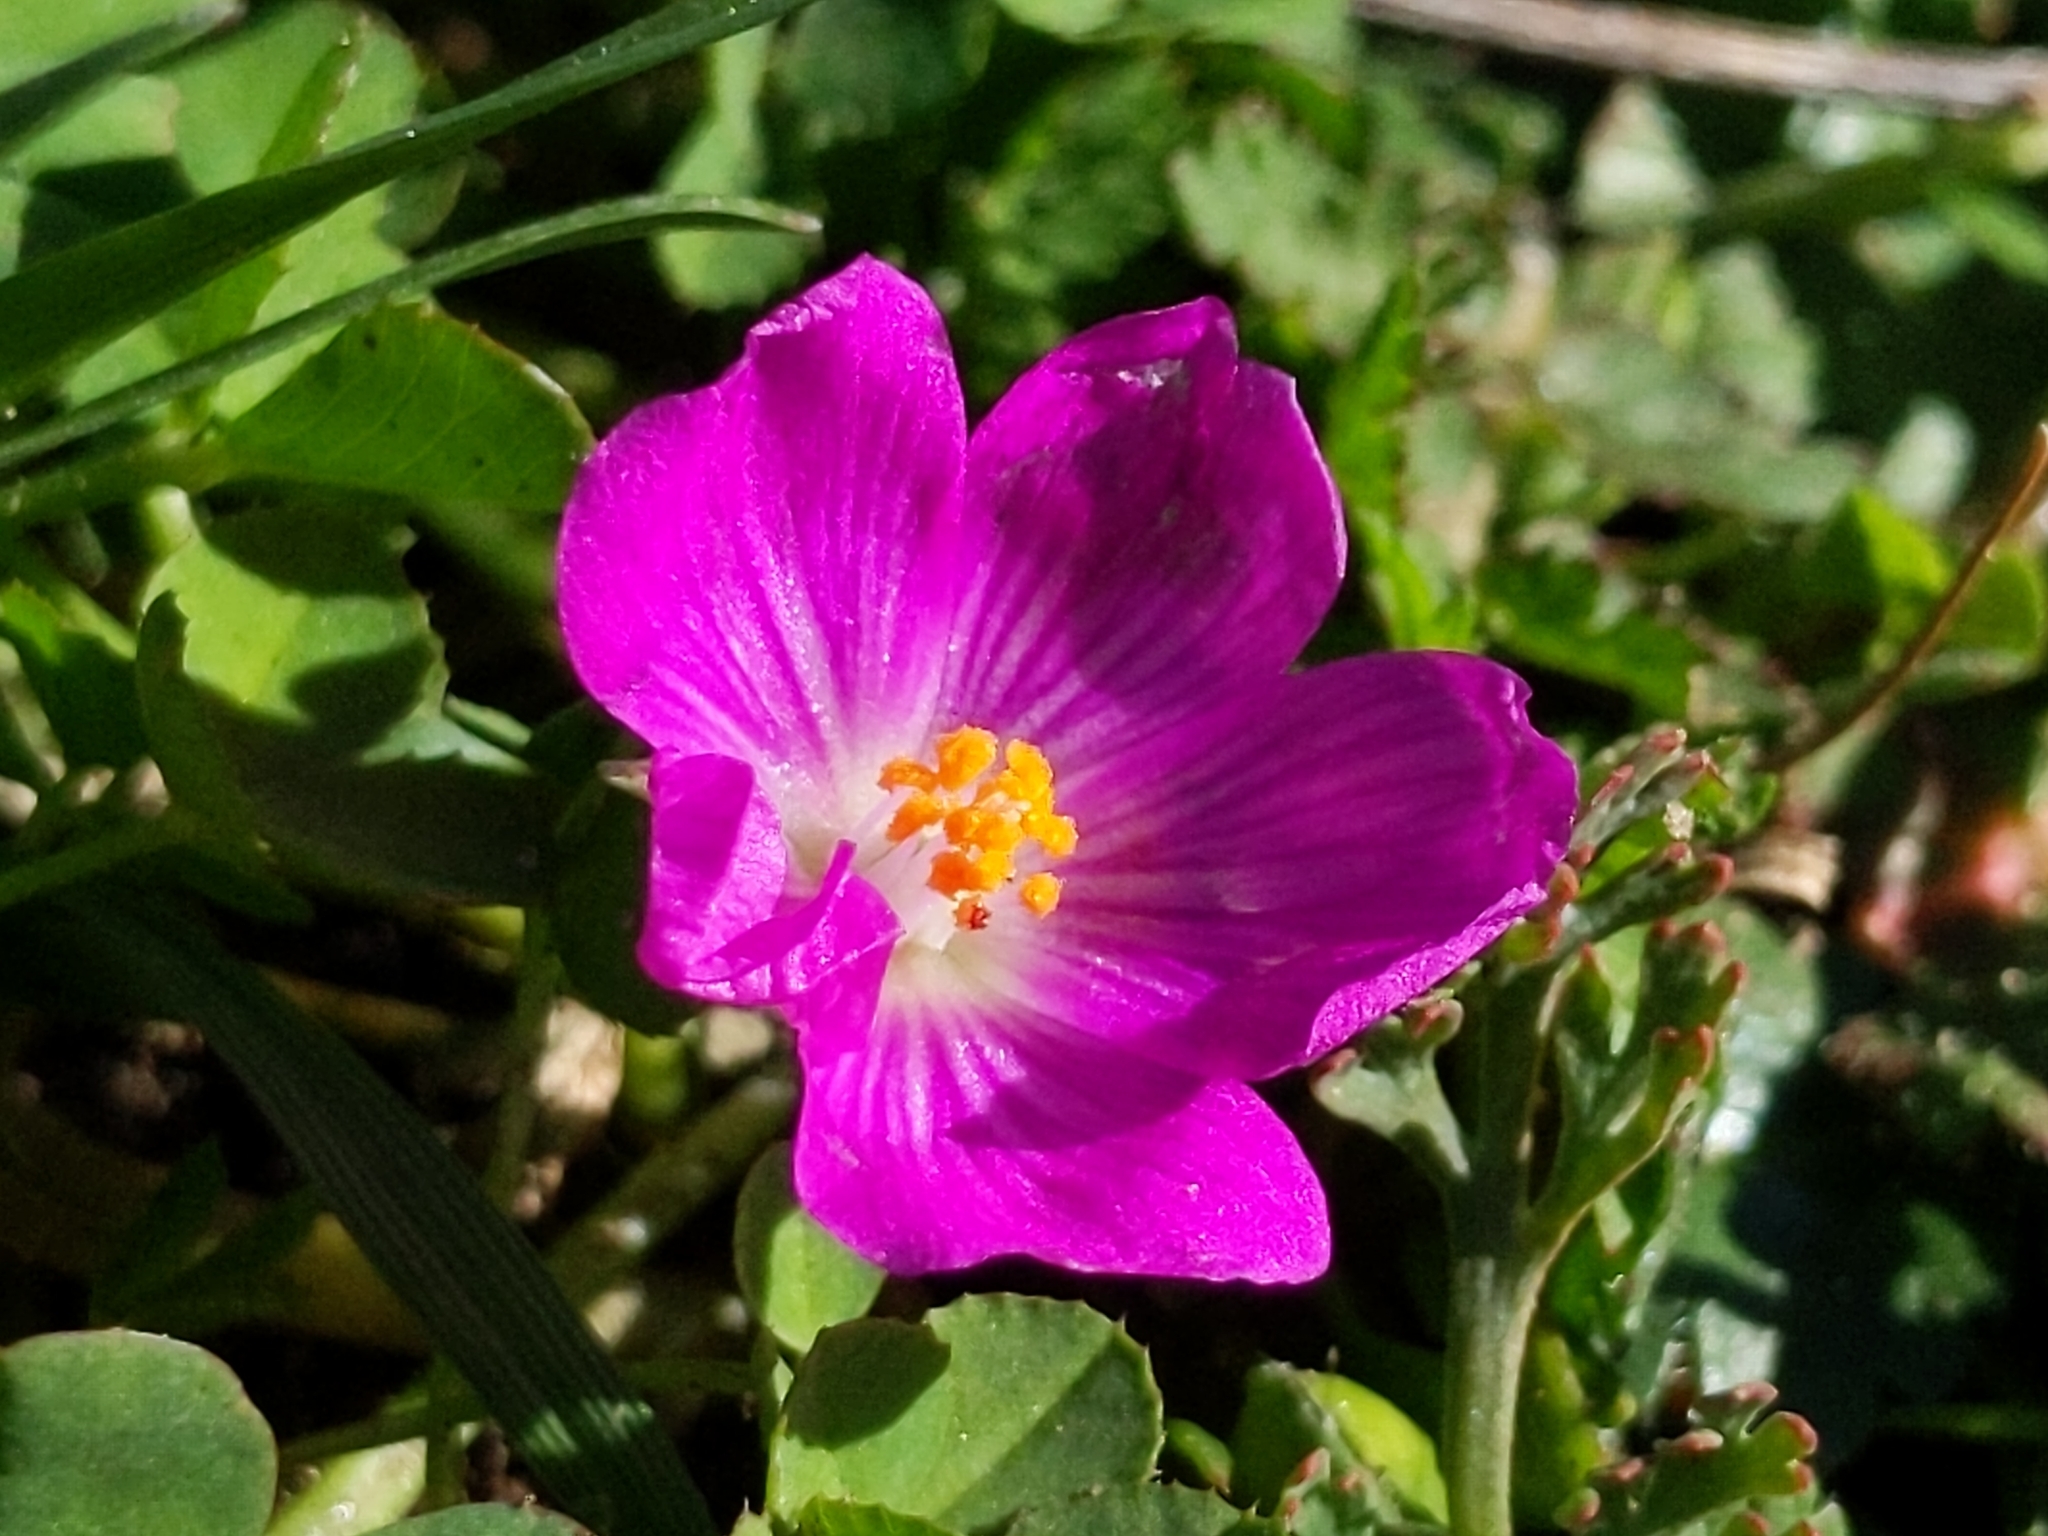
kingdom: Plantae
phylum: Tracheophyta
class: Magnoliopsida
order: Caryophyllales
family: Montiaceae
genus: Calandrinia
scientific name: Calandrinia menziesii
